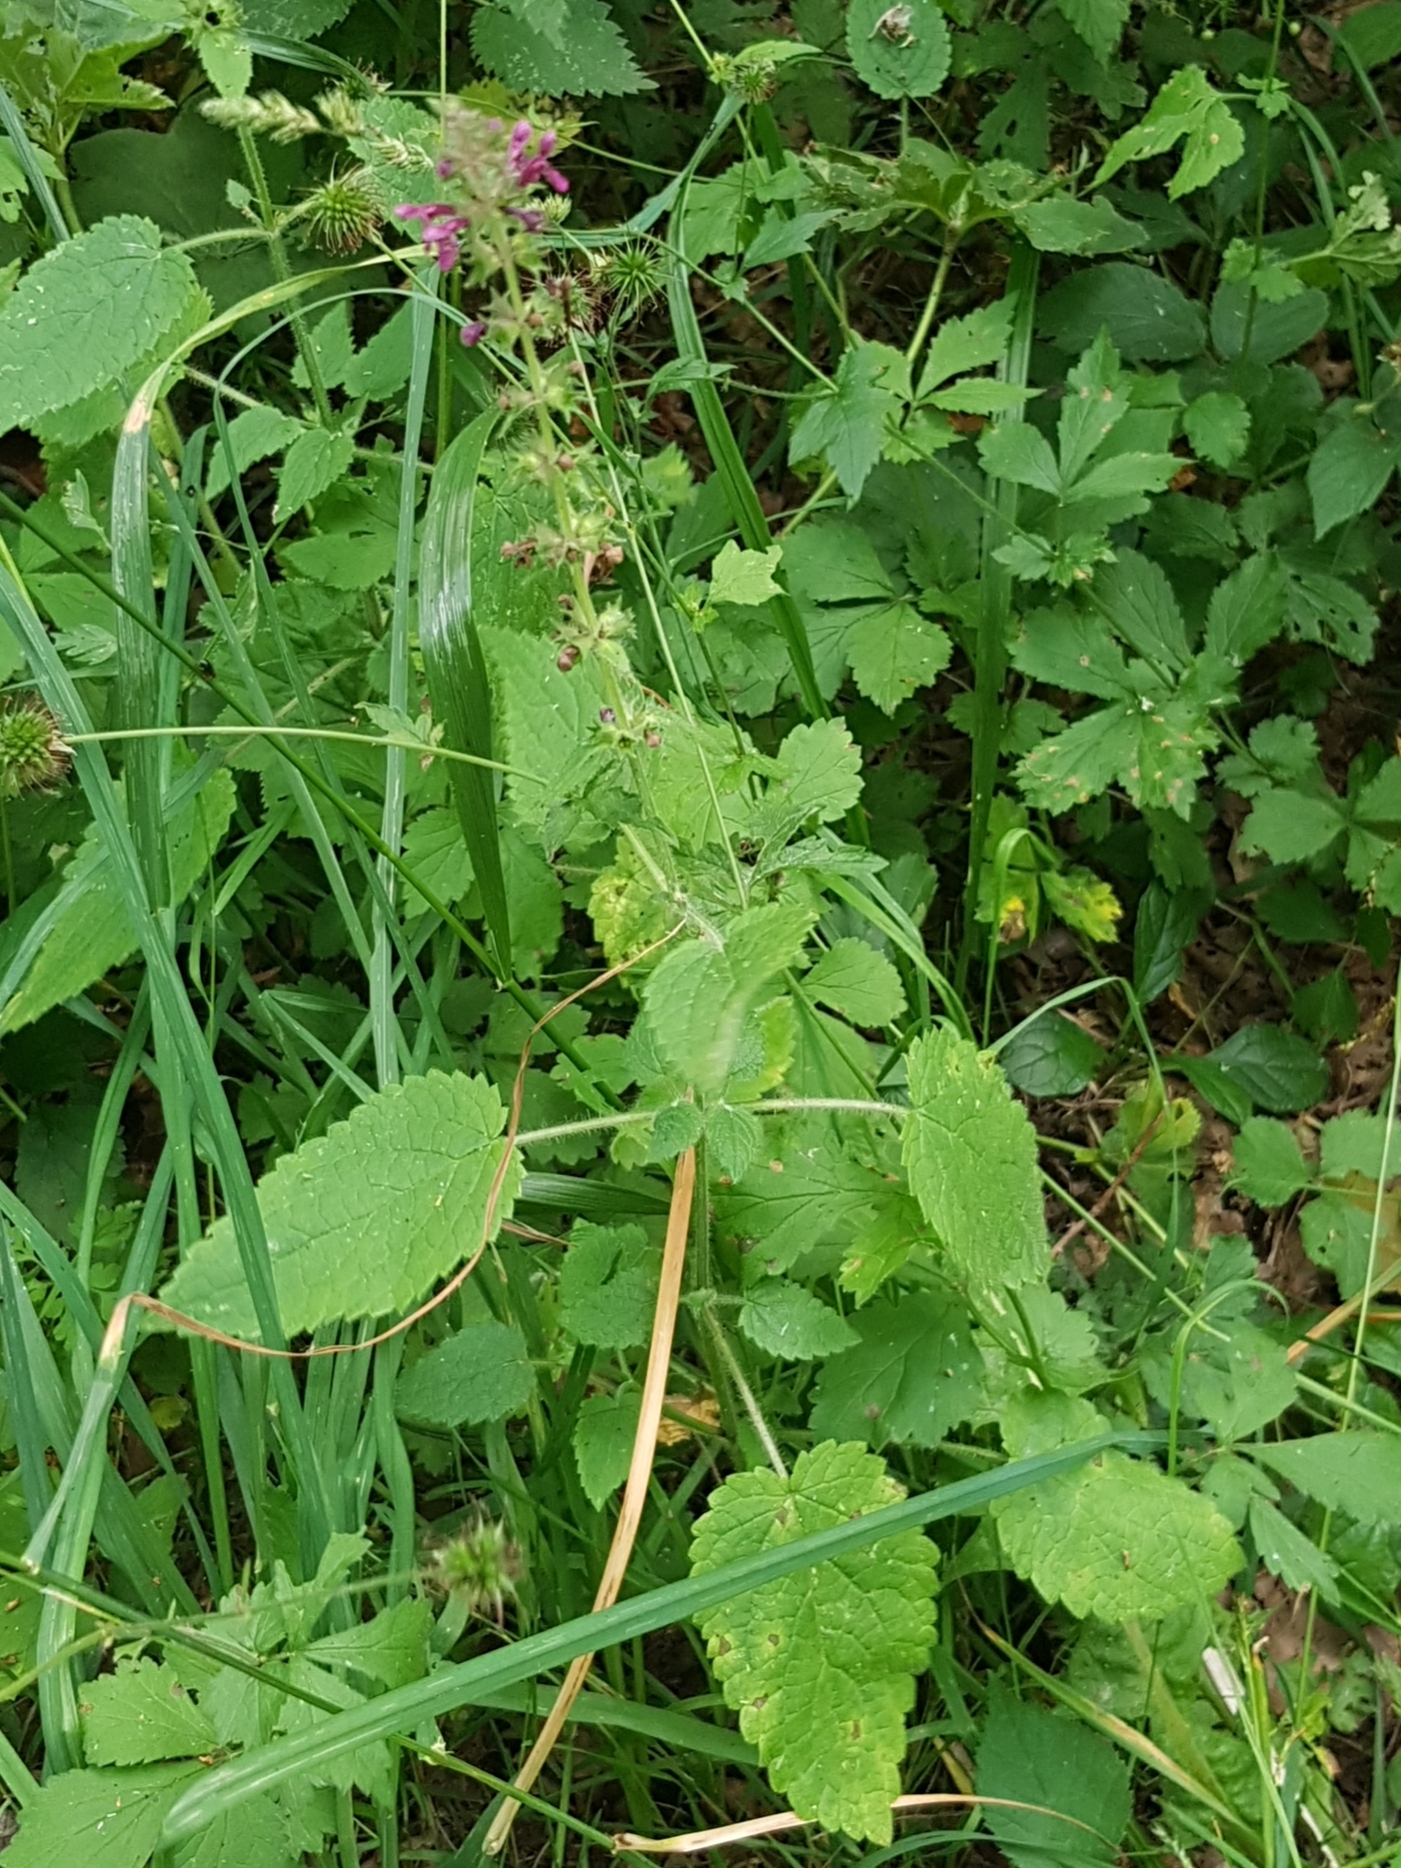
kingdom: Plantae
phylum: Tracheophyta
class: Magnoliopsida
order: Lamiales
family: Lamiaceae
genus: Stachys
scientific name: Stachys sylvatica
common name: Hedge woundwort
